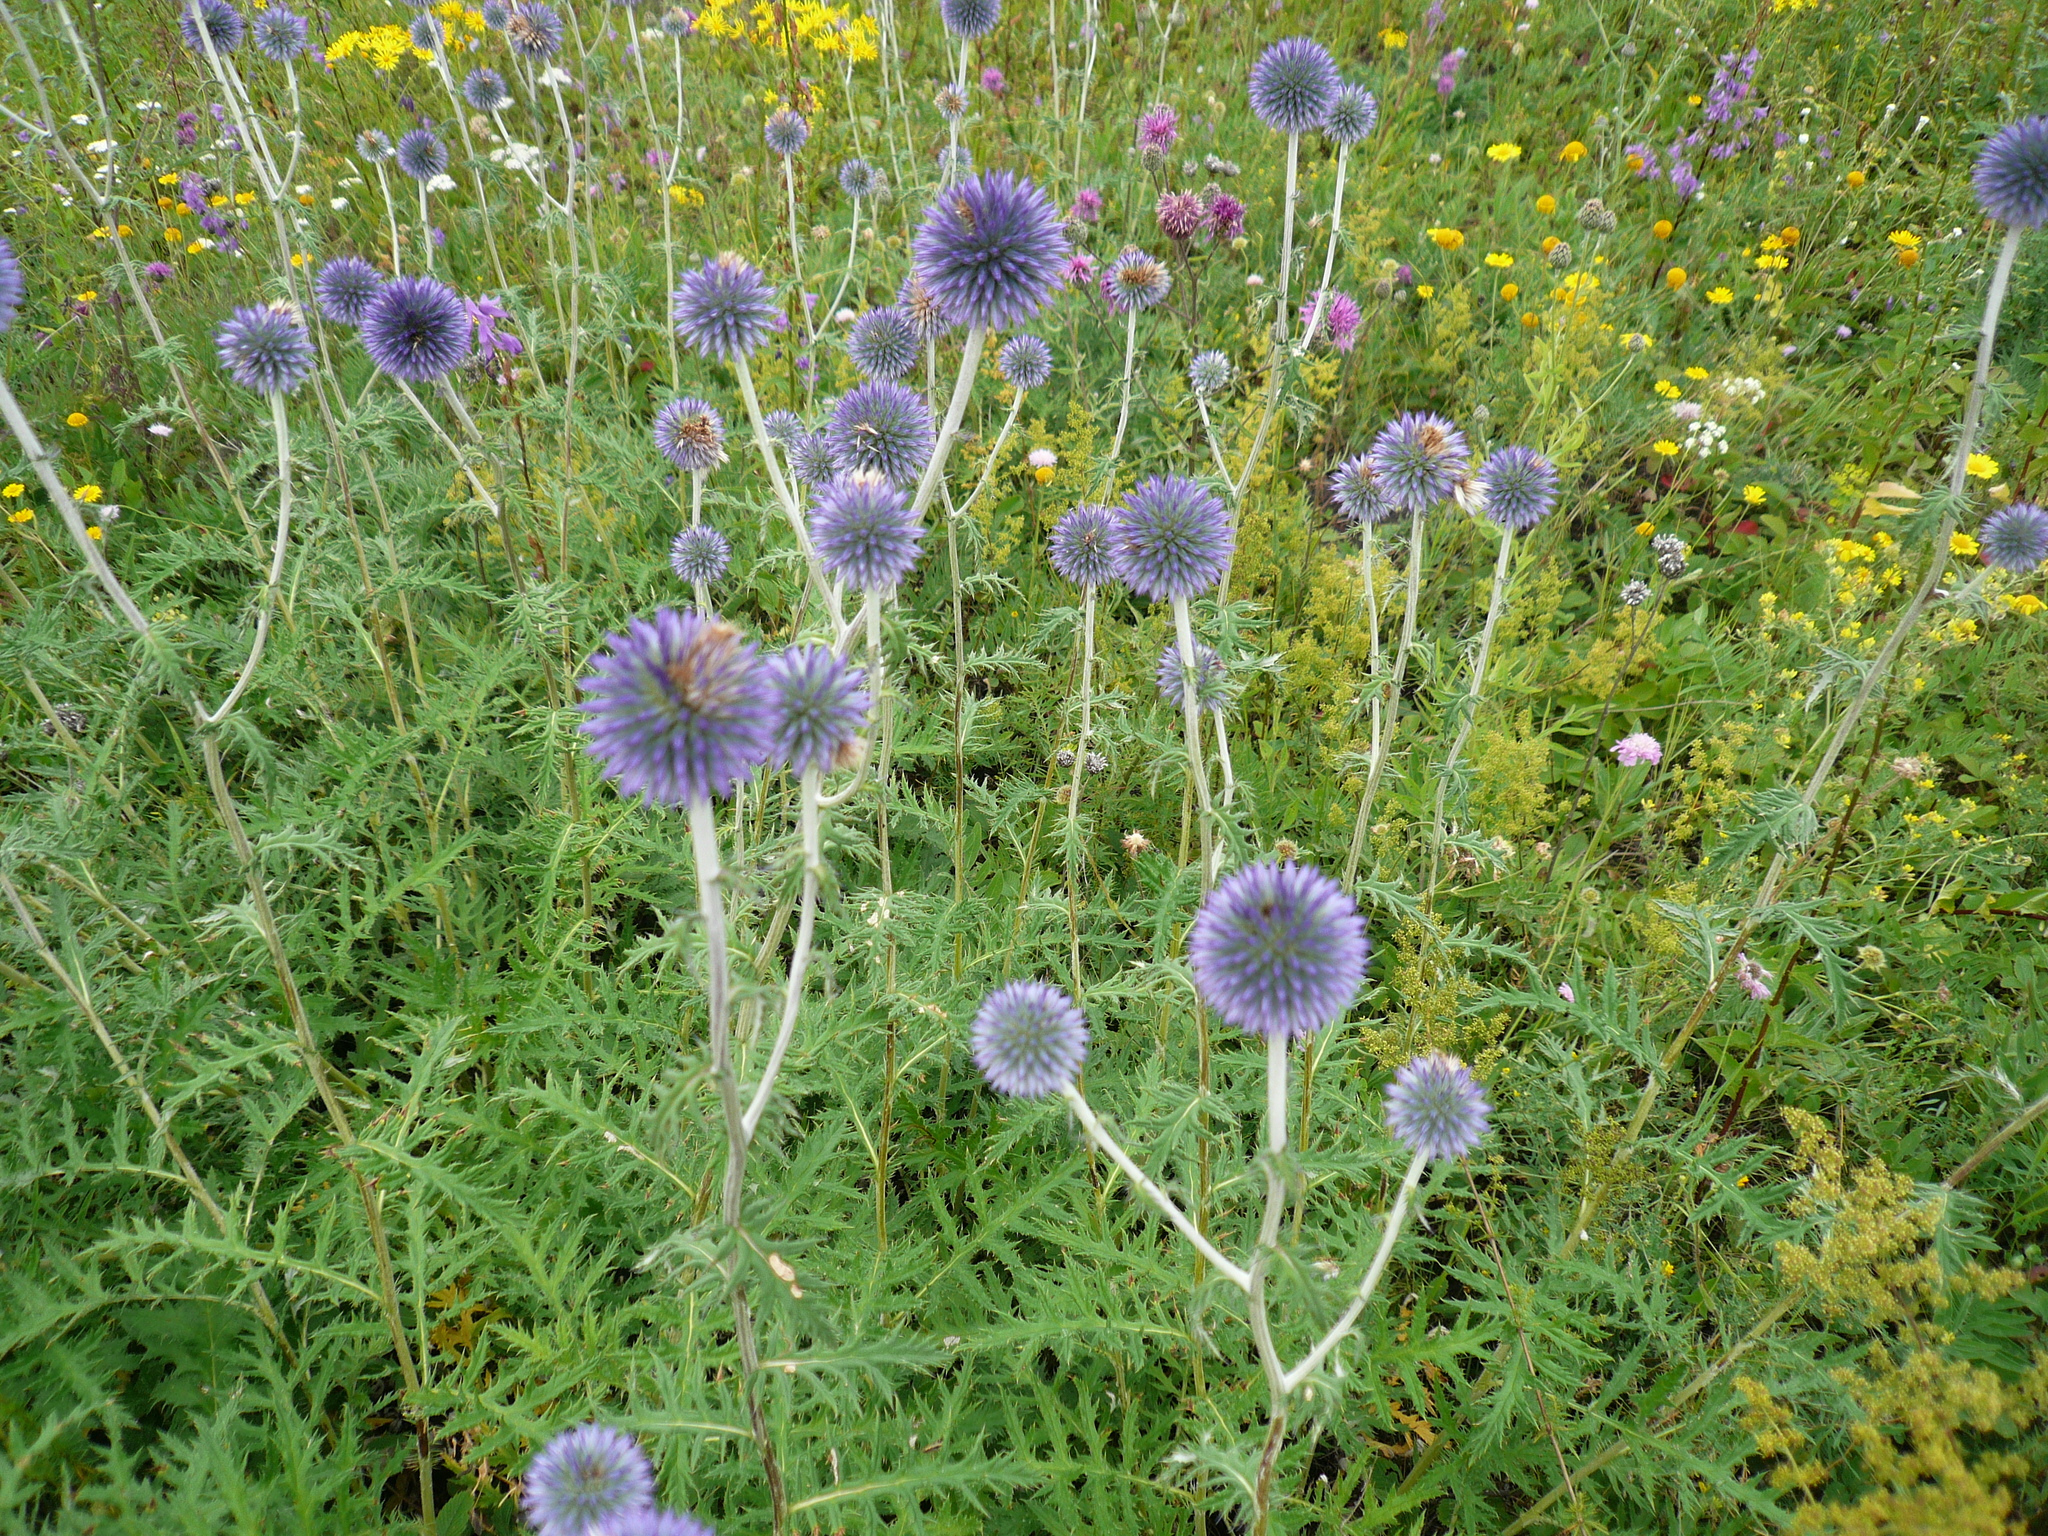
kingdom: Plantae
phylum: Tracheophyta
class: Magnoliopsida
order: Asterales
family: Asteraceae
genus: Echinops
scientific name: Echinops ritro
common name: Globe thistle
